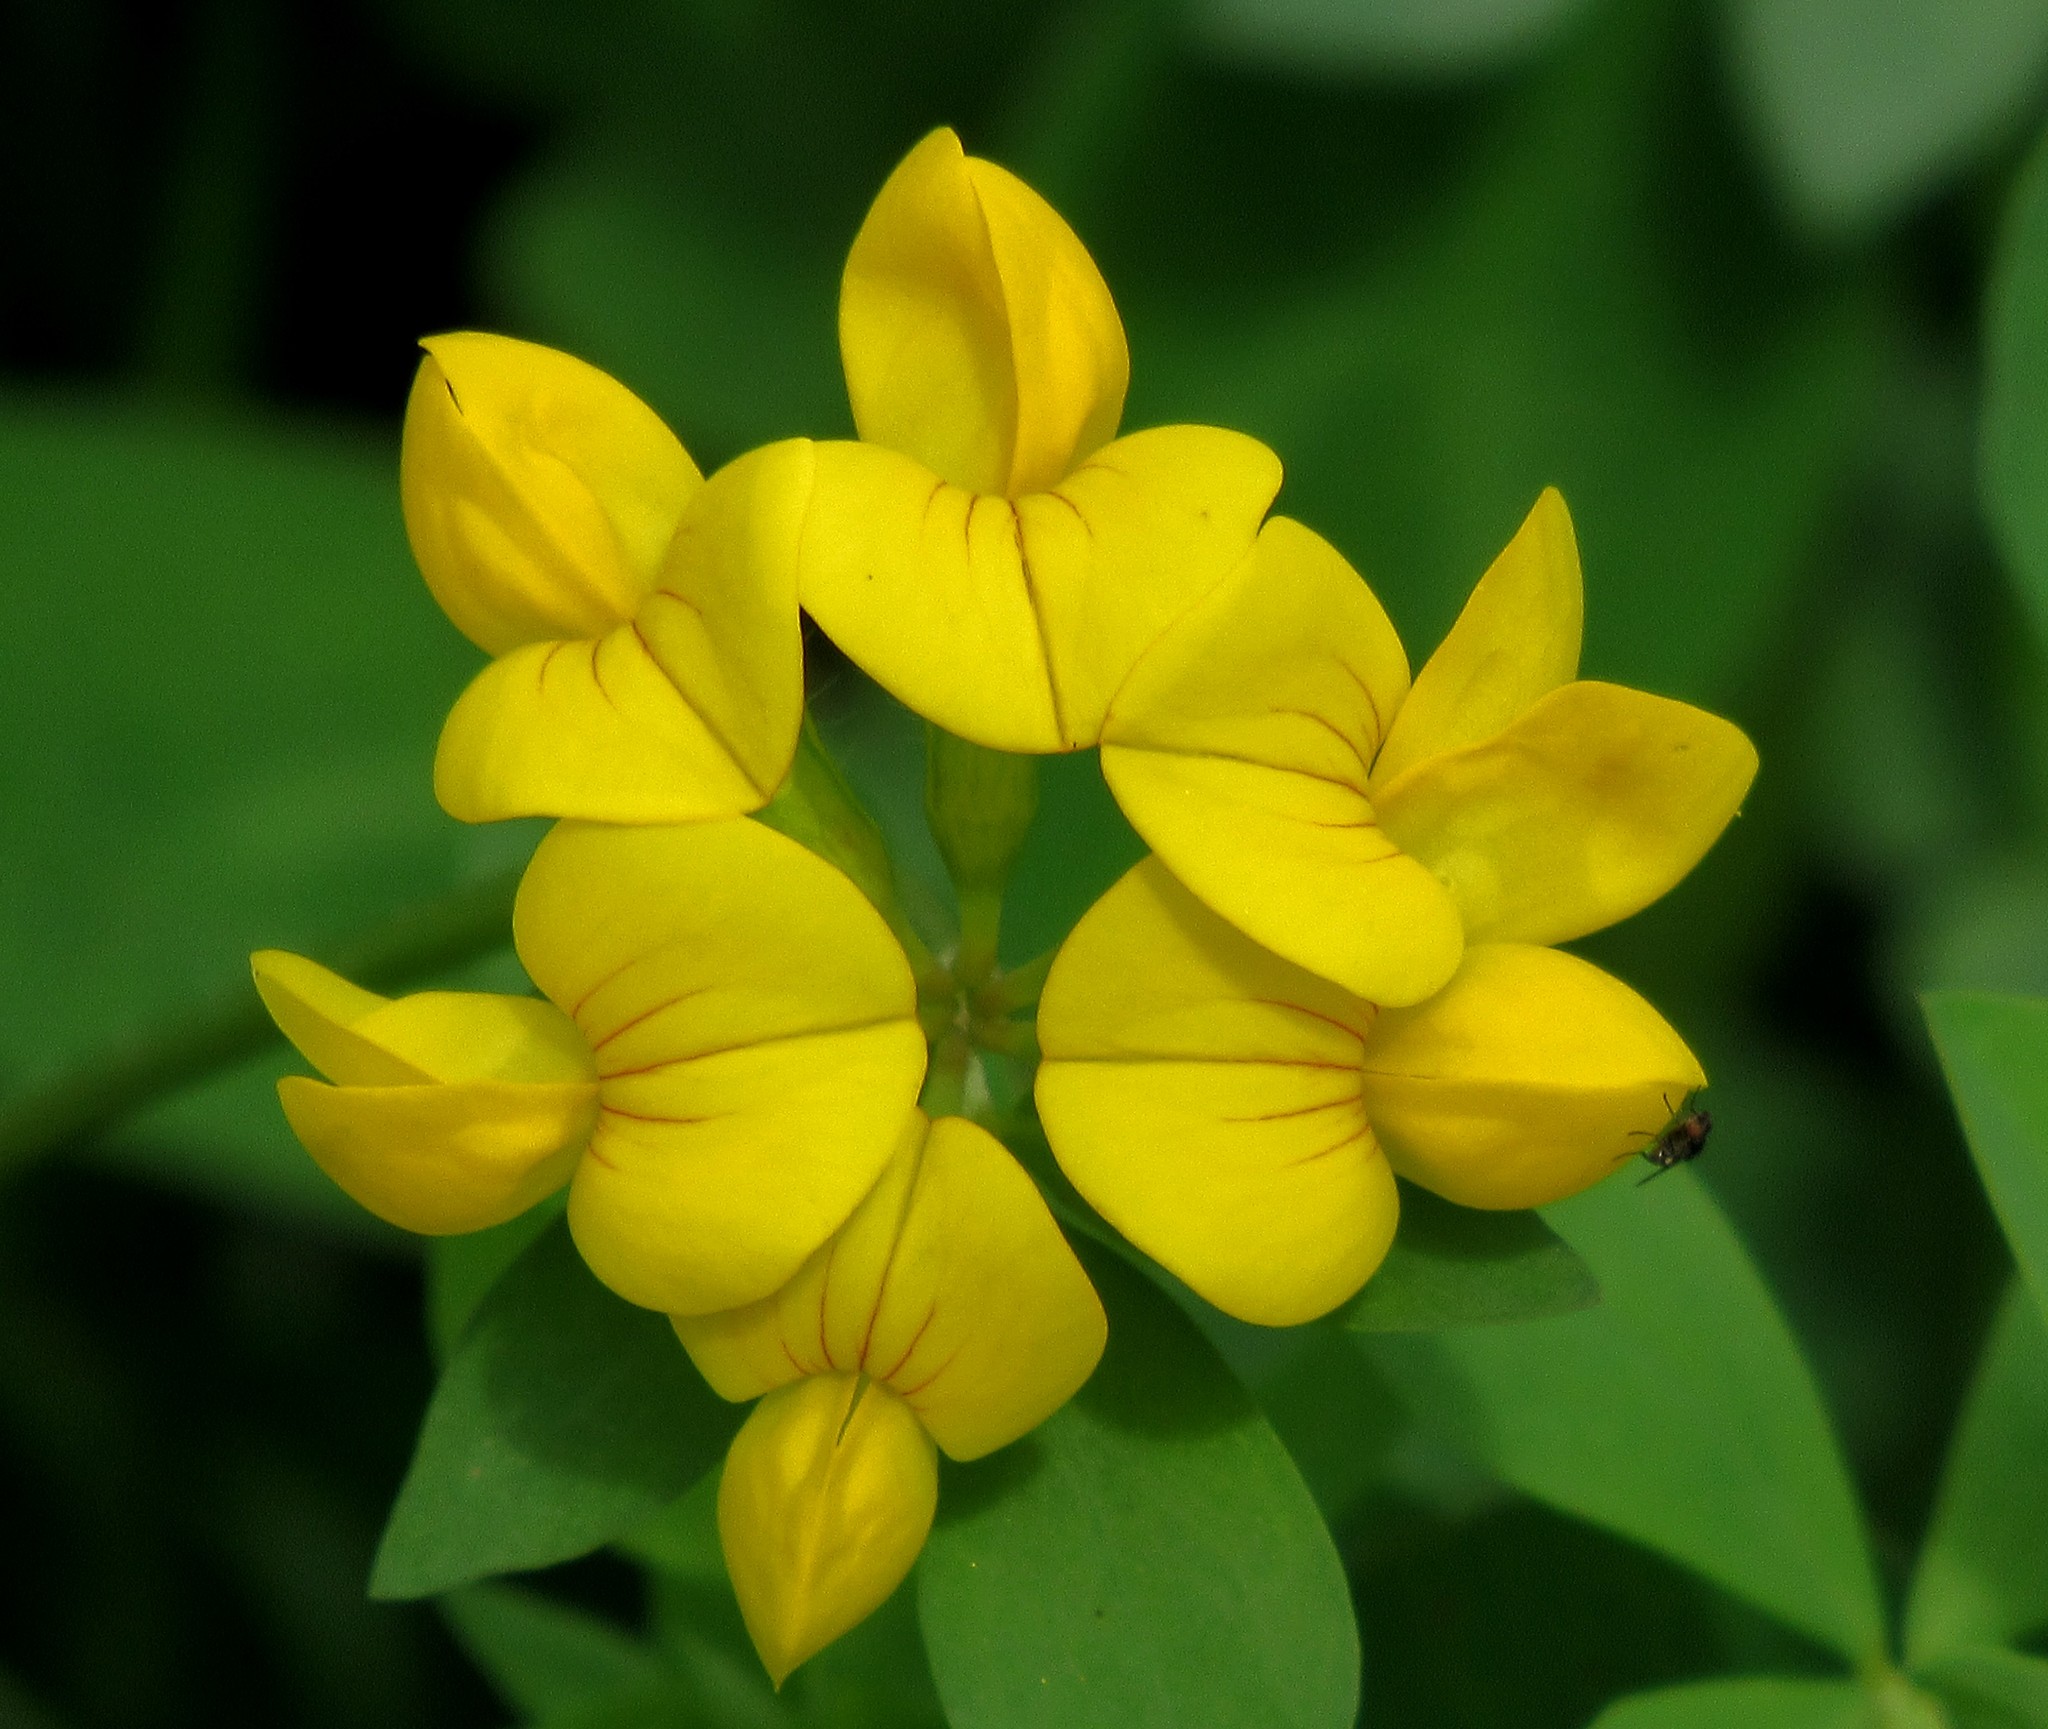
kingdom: Plantae
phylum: Tracheophyta
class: Magnoliopsida
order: Fabales
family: Fabaceae
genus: Lotus
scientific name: Lotus corniculatus
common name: Common bird's-foot-trefoil
